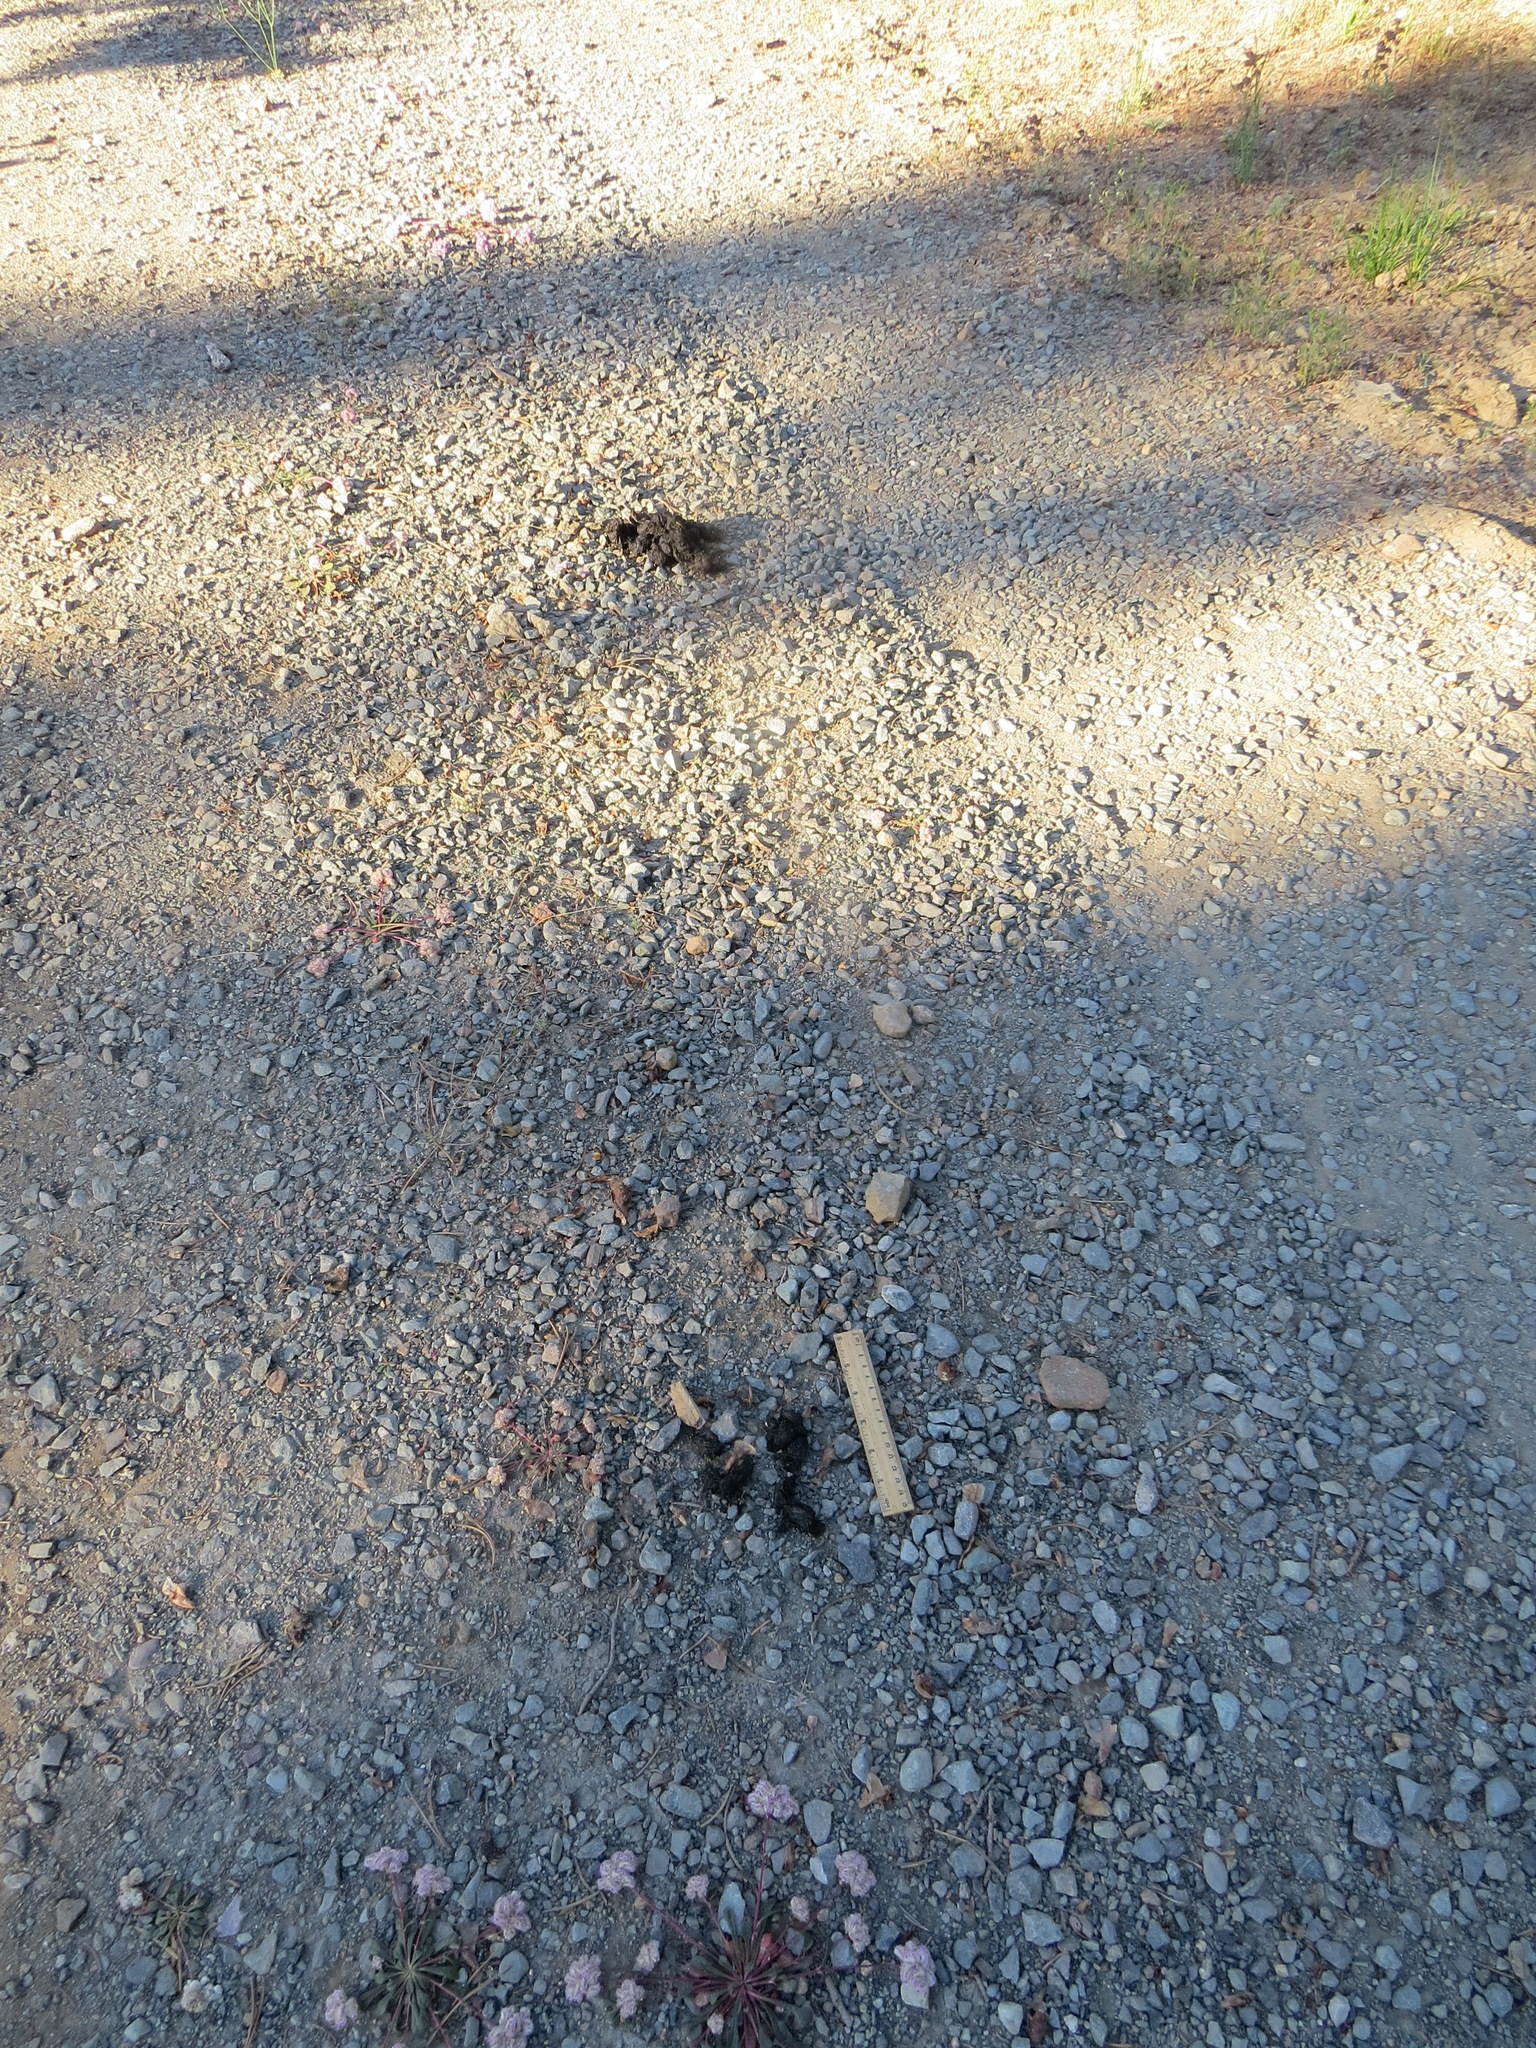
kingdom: Animalia
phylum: Chordata
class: Mammalia
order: Carnivora
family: Ursidae
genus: Ursus
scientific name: Ursus americanus
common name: American black bear
